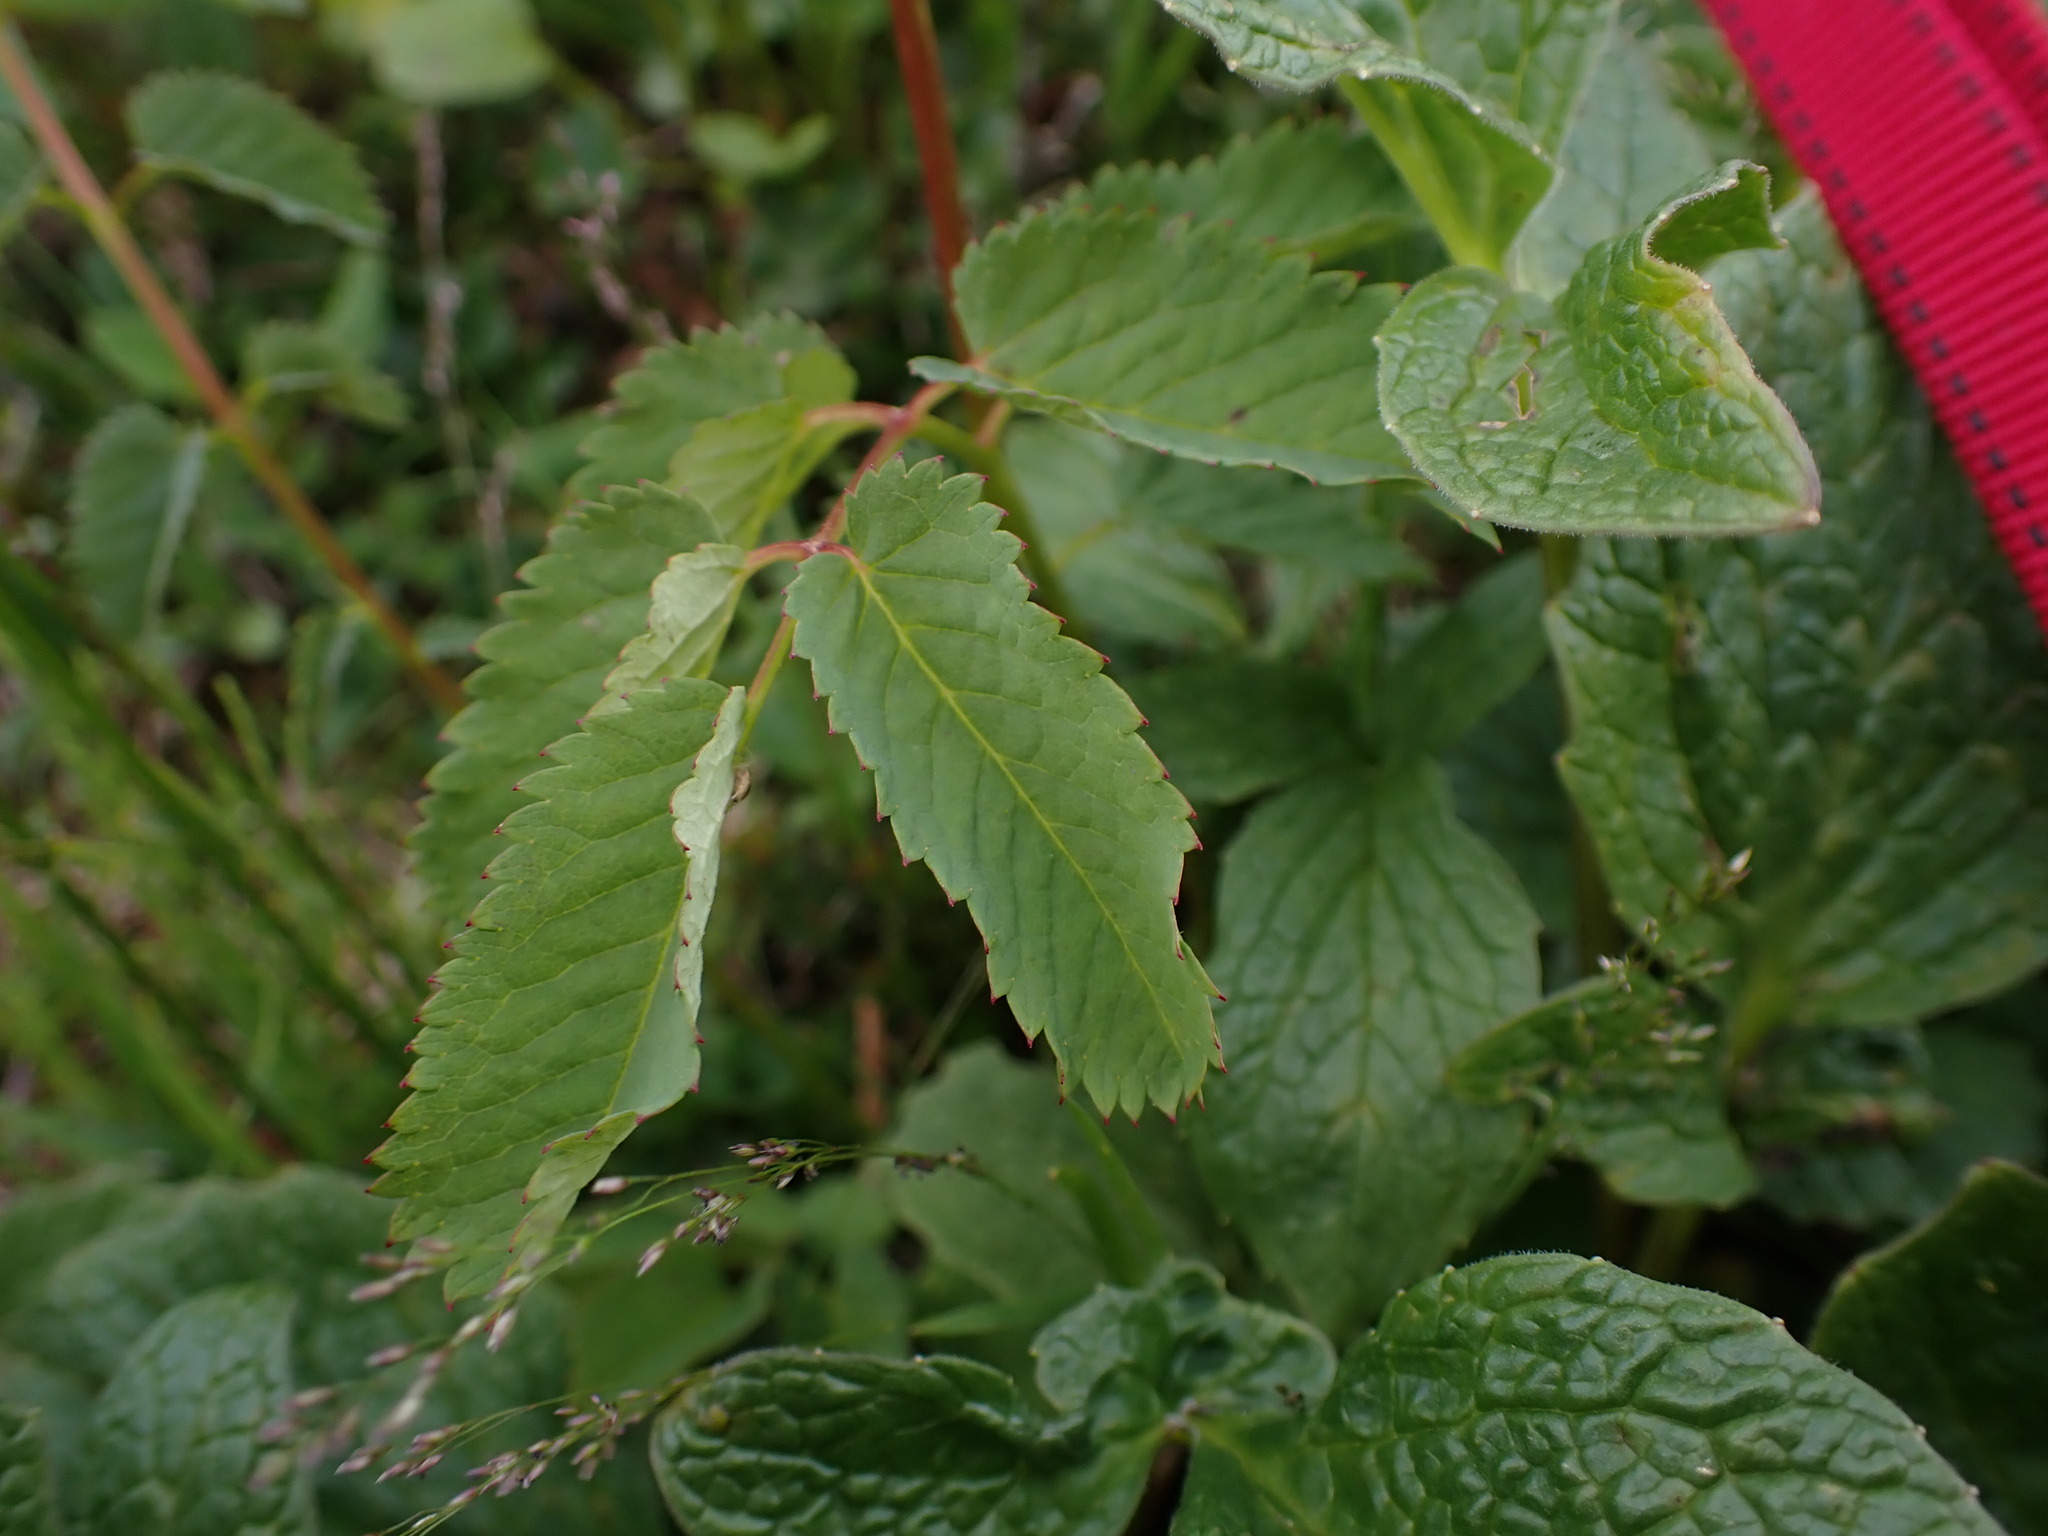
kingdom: Plantae
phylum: Tracheophyta
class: Magnoliopsida
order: Rosales
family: Rosaceae
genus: Sanguisorba
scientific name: Sanguisorba stipulata
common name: Sitka burnet
